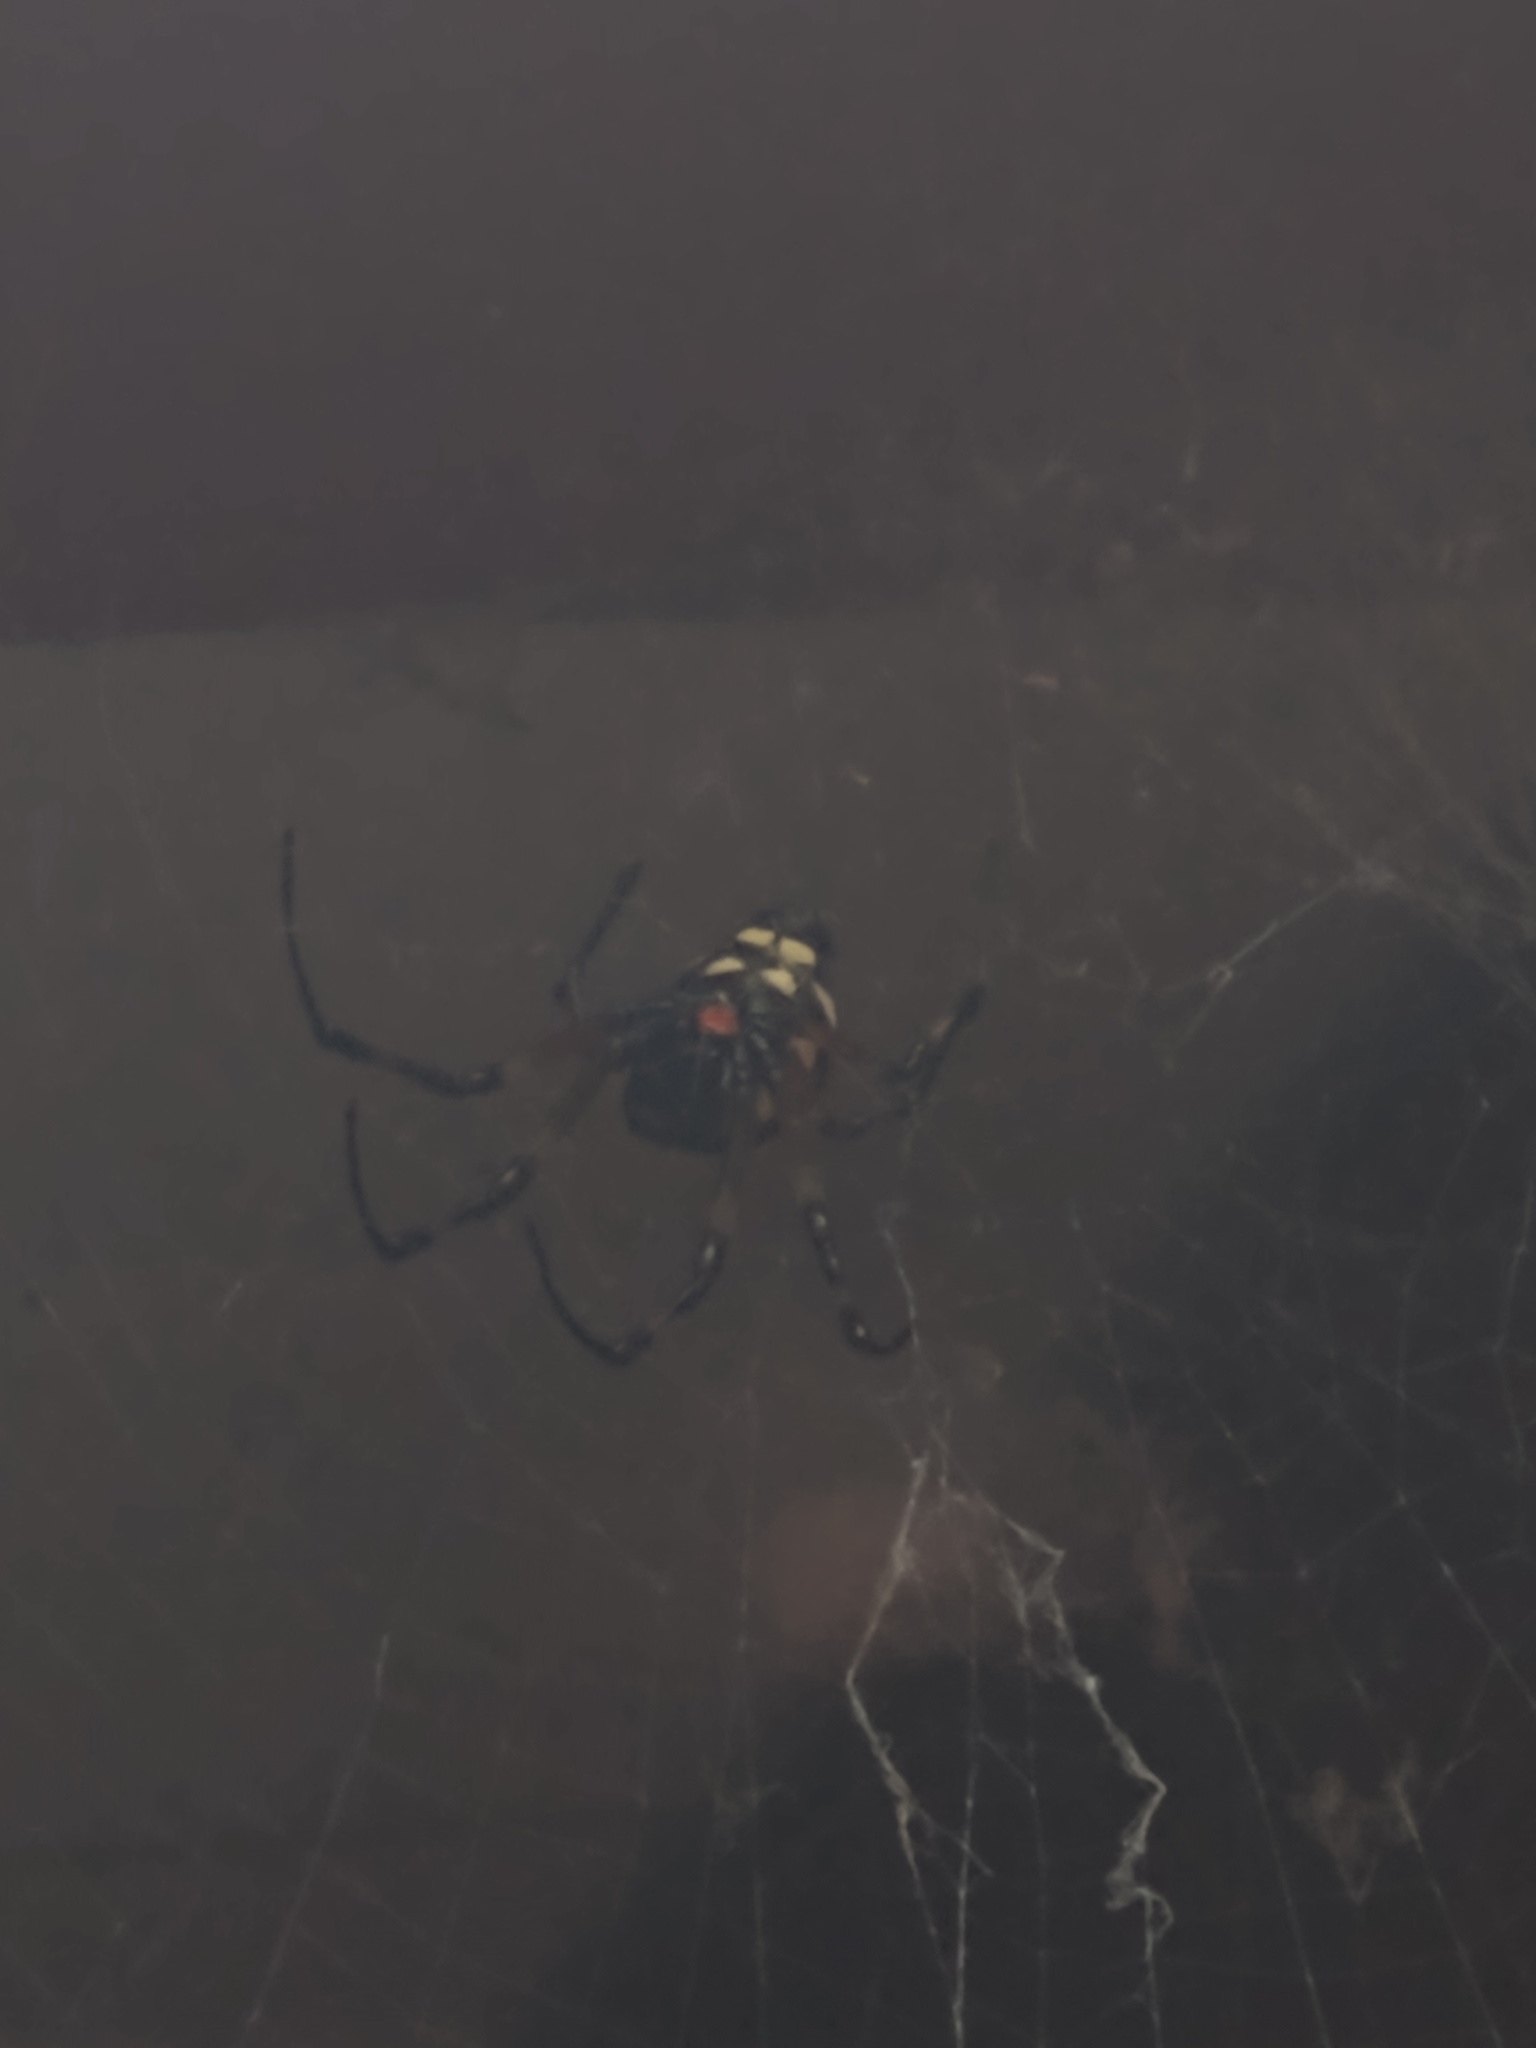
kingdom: Animalia
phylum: Arthropoda
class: Arachnida
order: Araneae
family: Araneidae
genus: Nephilingis
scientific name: Nephilingis cruentata
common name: African hermit spider
